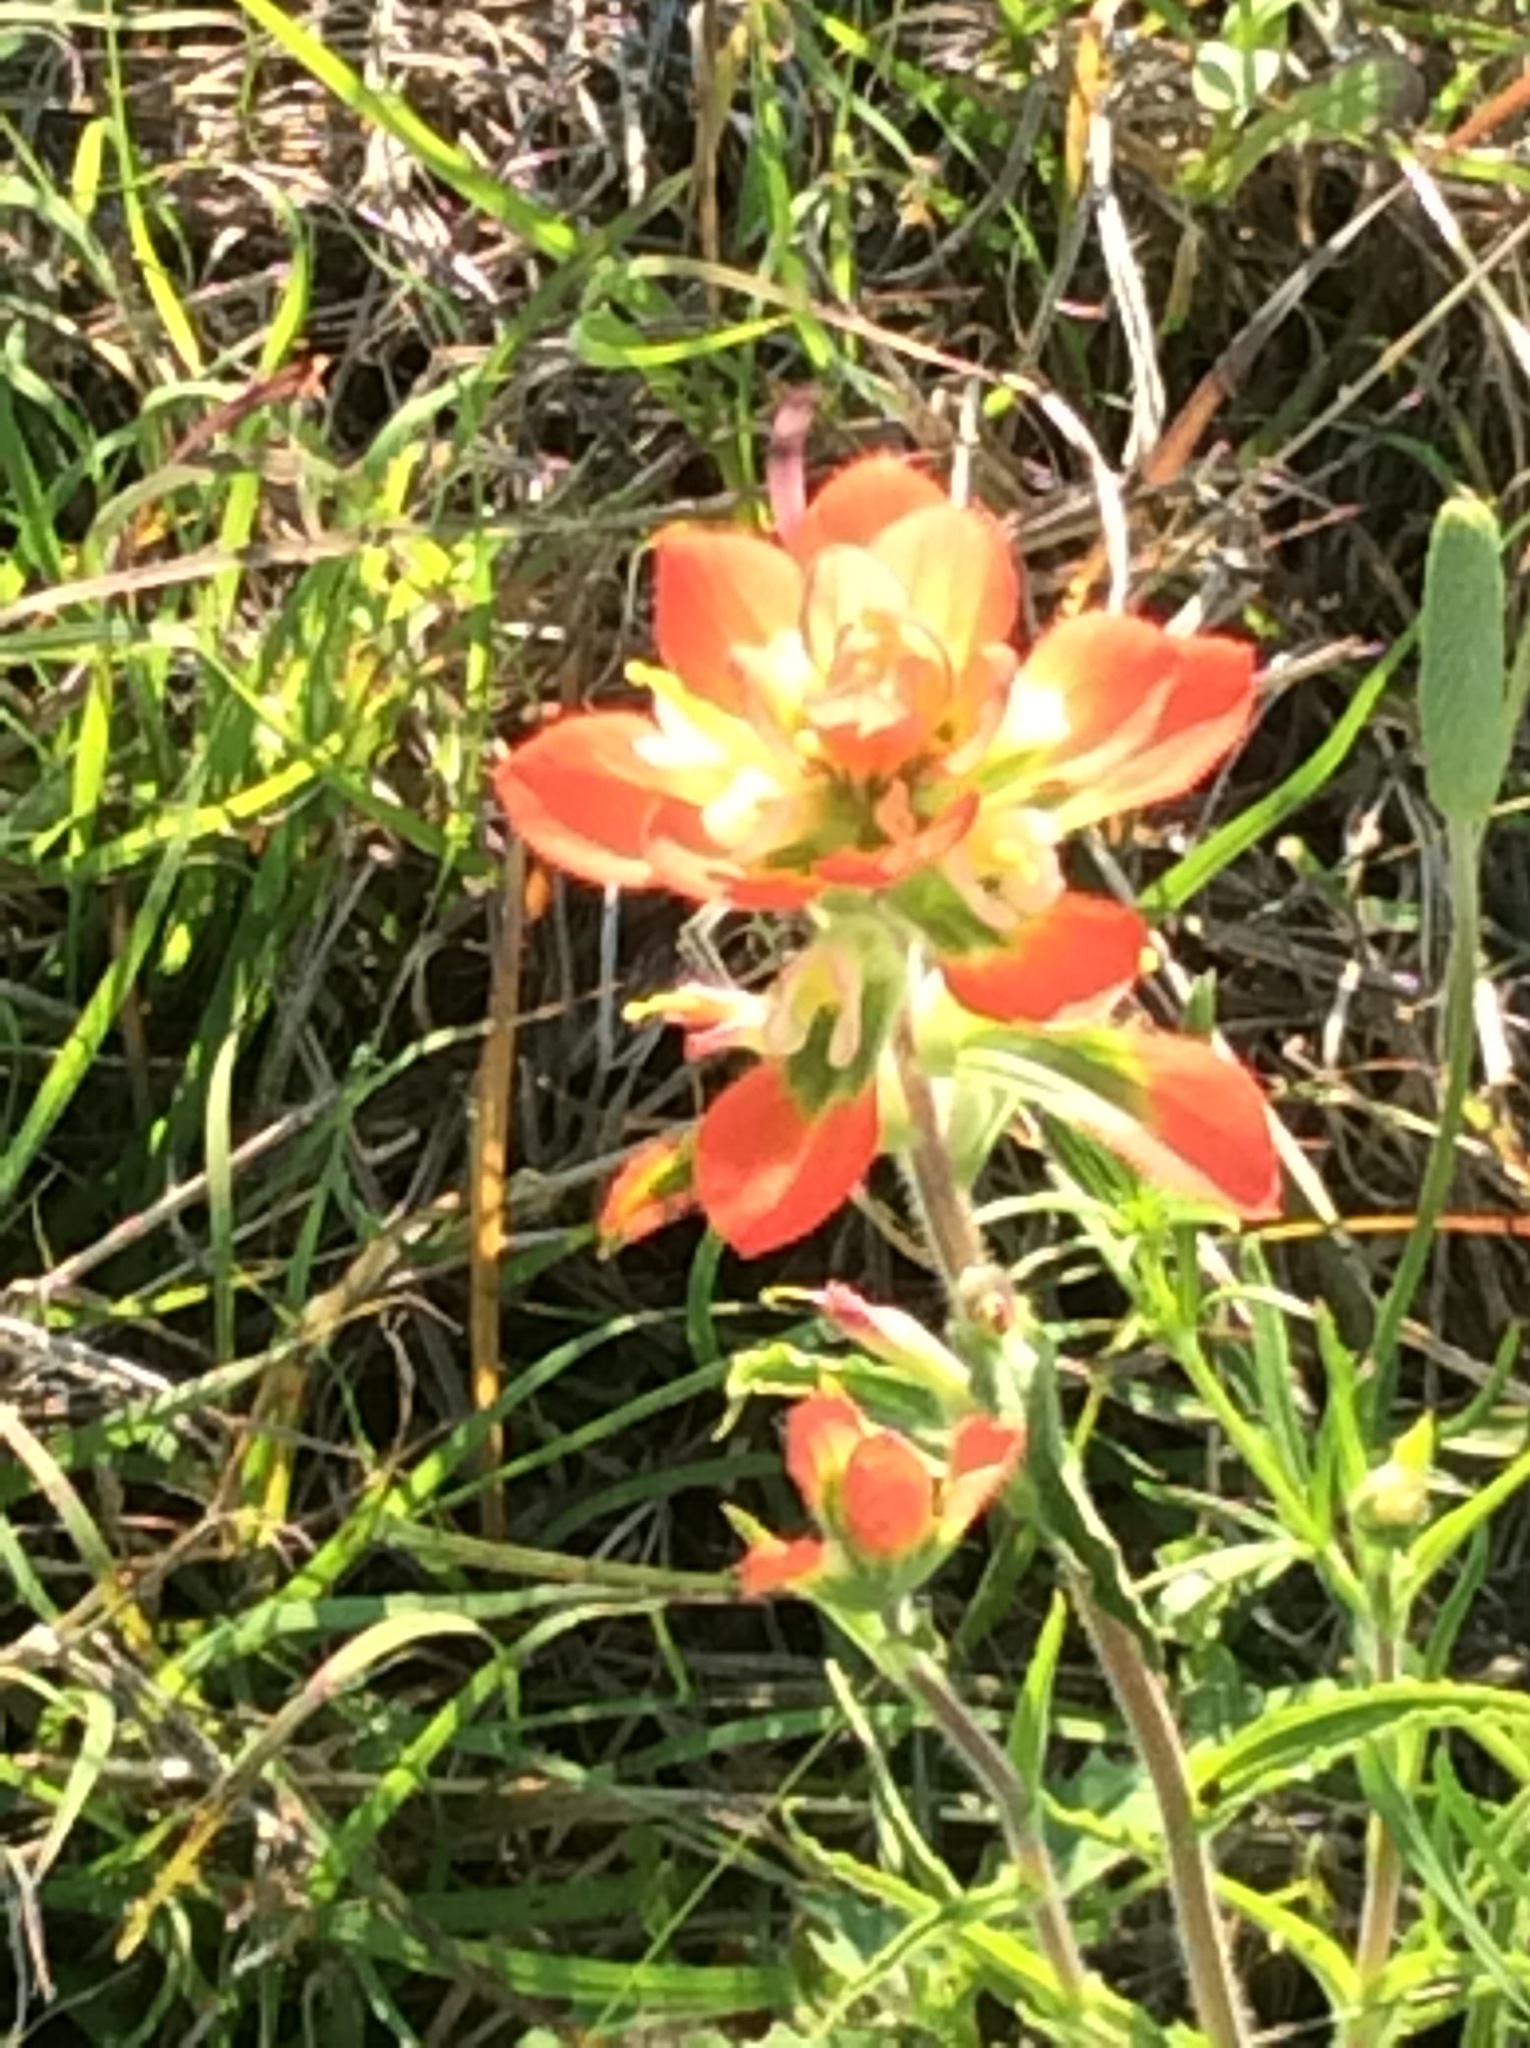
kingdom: Plantae
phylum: Tracheophyta
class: Magnoliopsida
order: Lamiales
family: Orobanchaceae
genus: Castilleja
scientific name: Castilleja indivisa
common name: Texas paintbrush
